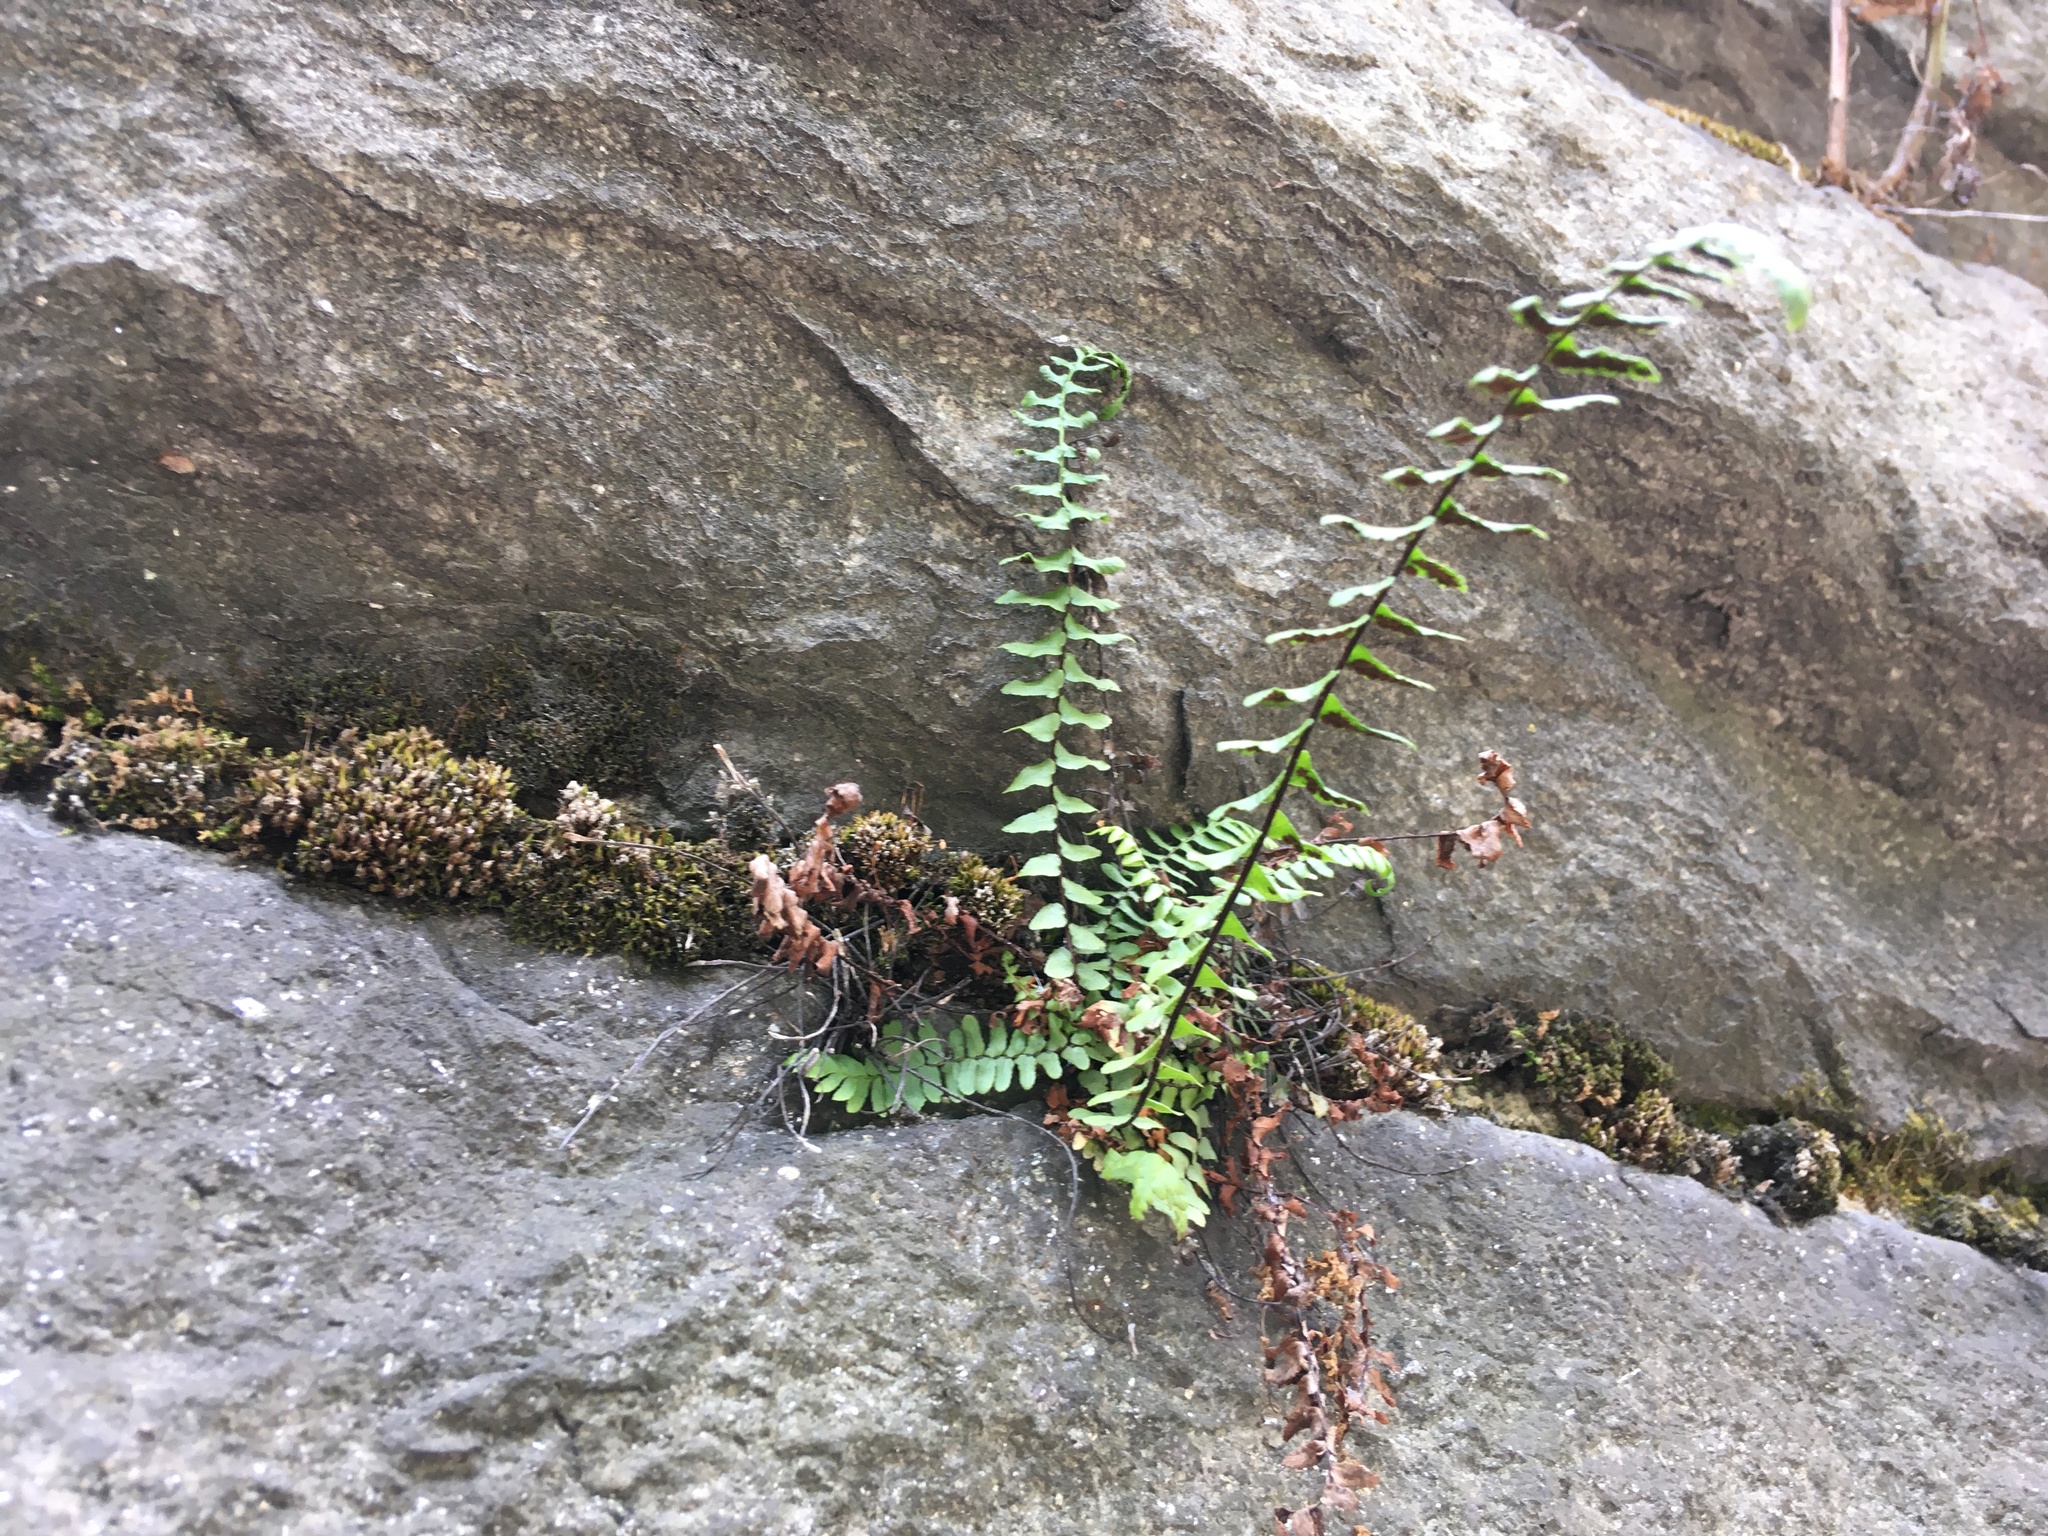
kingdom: Plantae
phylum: Tracheophyta
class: Polypodiopsida
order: Polypodiales
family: Aspleniaceae
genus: Asplenium
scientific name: Asplenium platyneuron
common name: Ebony spleenwort
